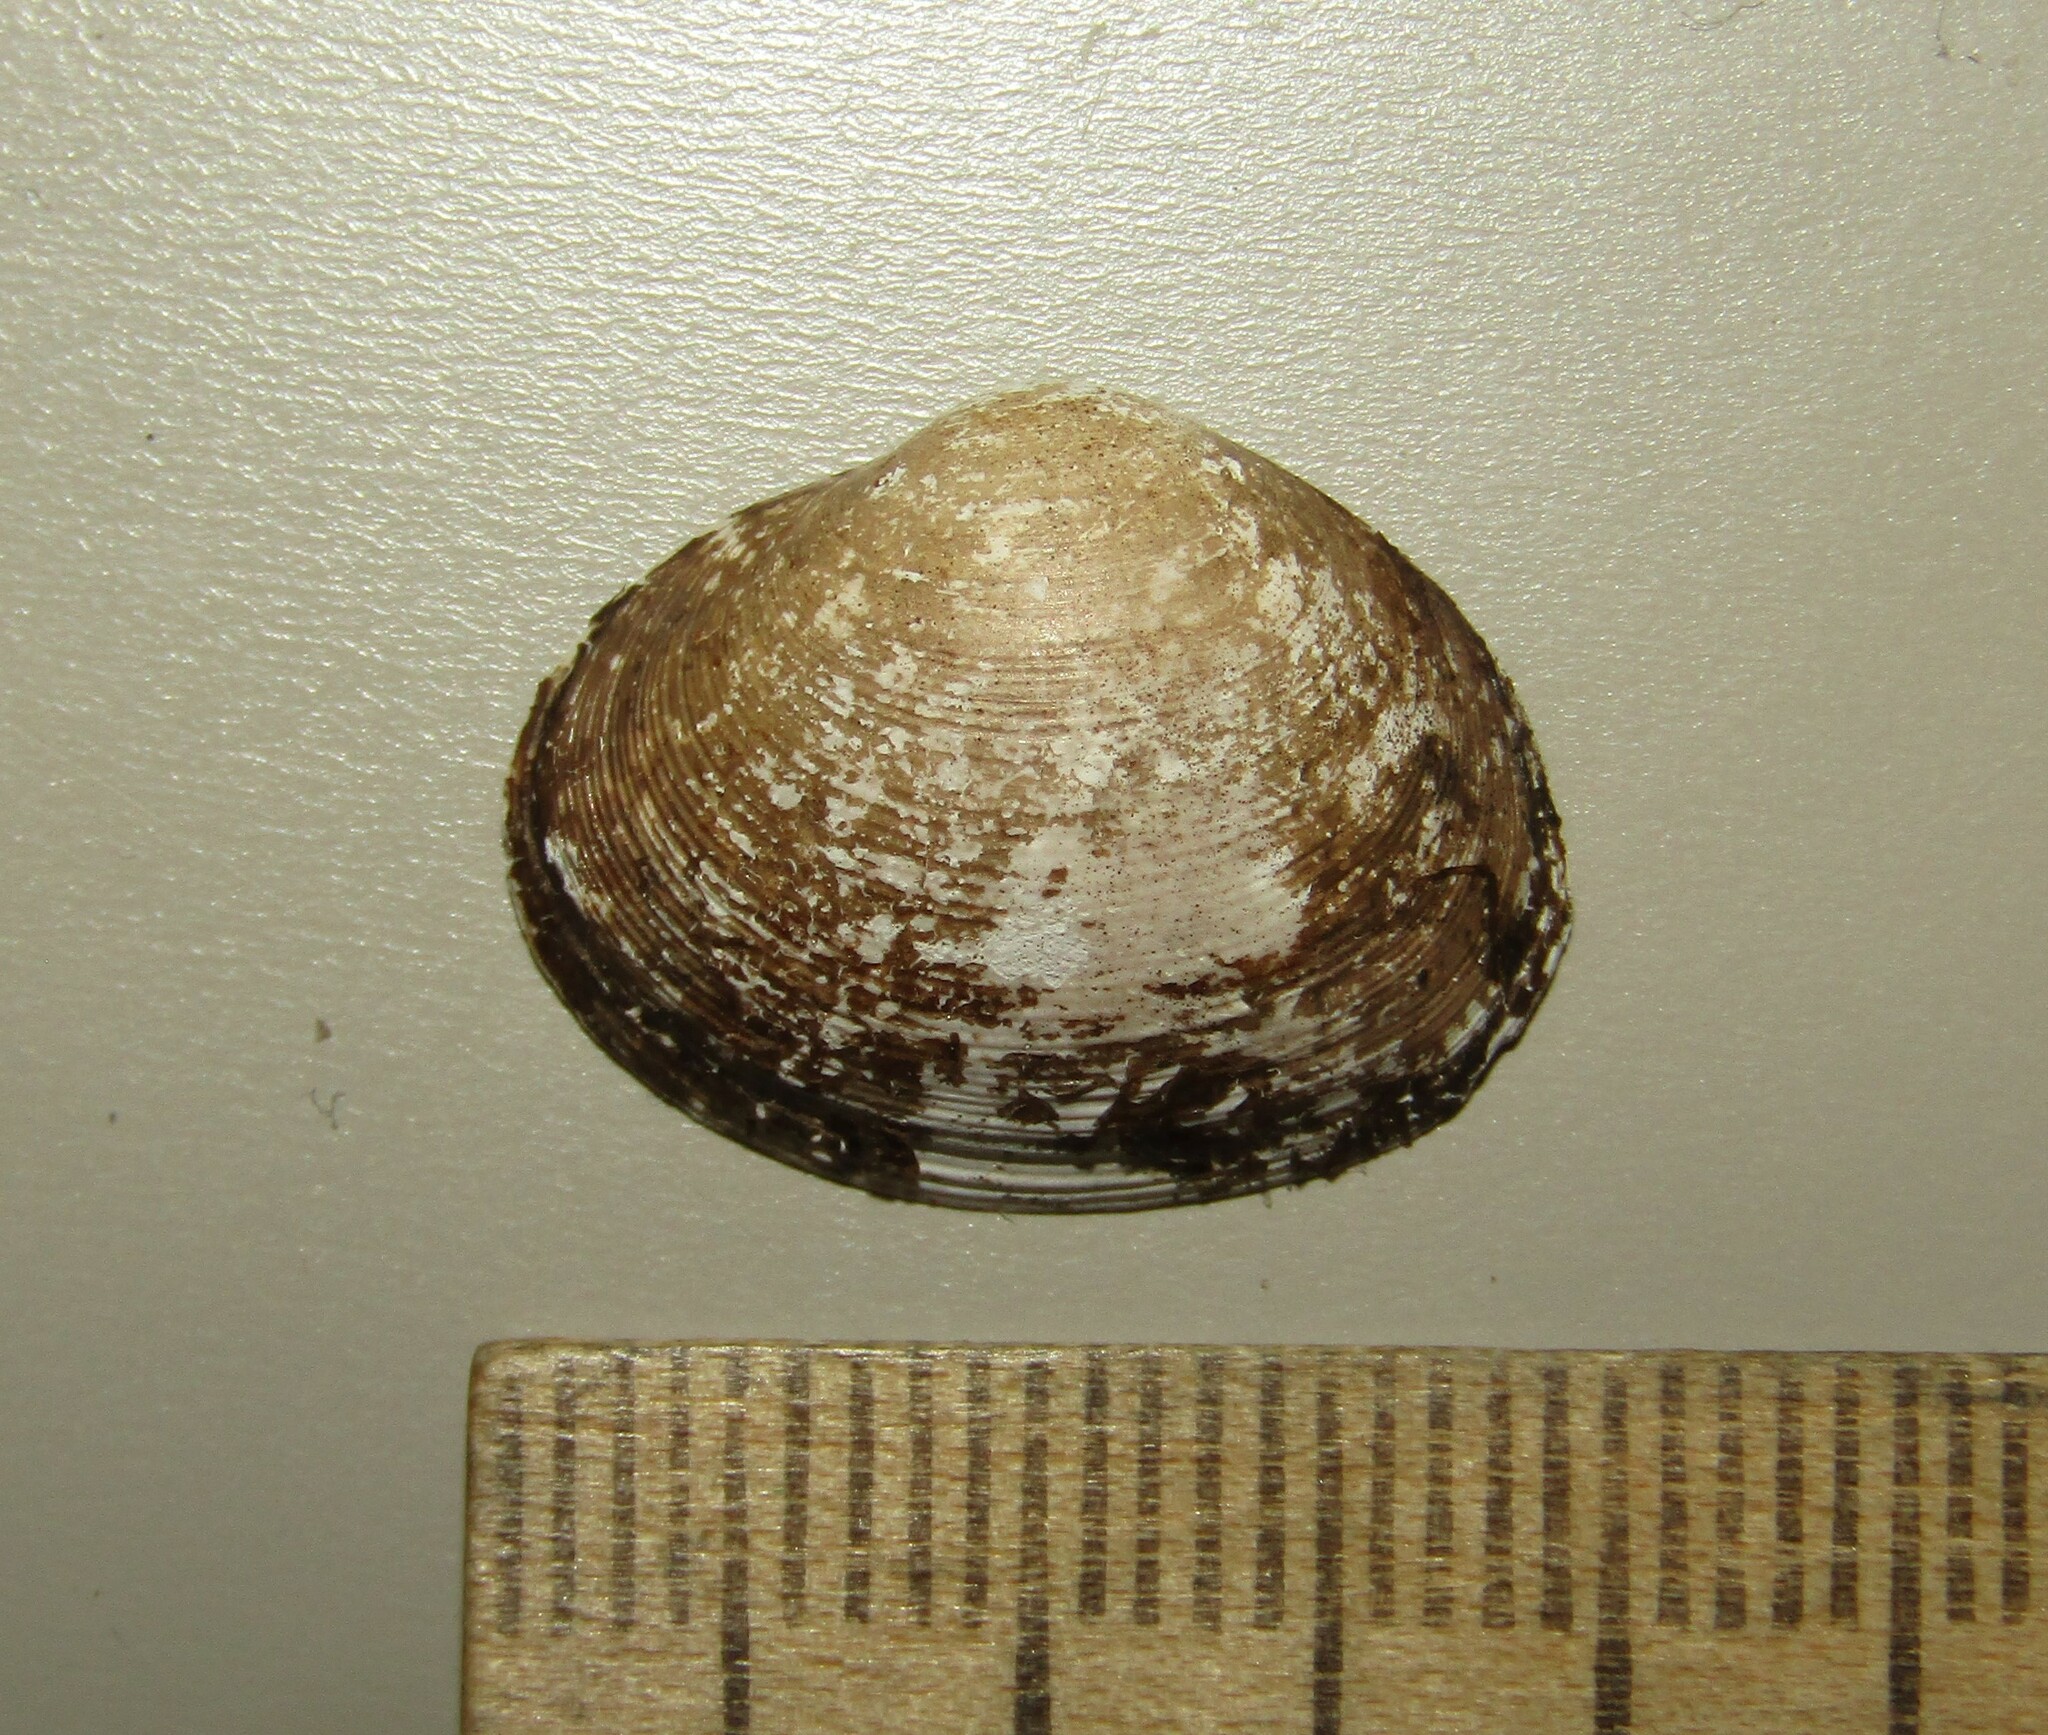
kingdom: Animalia
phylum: Mollusca
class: Bivalvia
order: Sphaeriida
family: Sphaeriidae
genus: Sphaerium
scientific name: Sphaerium rivicola
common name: Nut orb mussel
